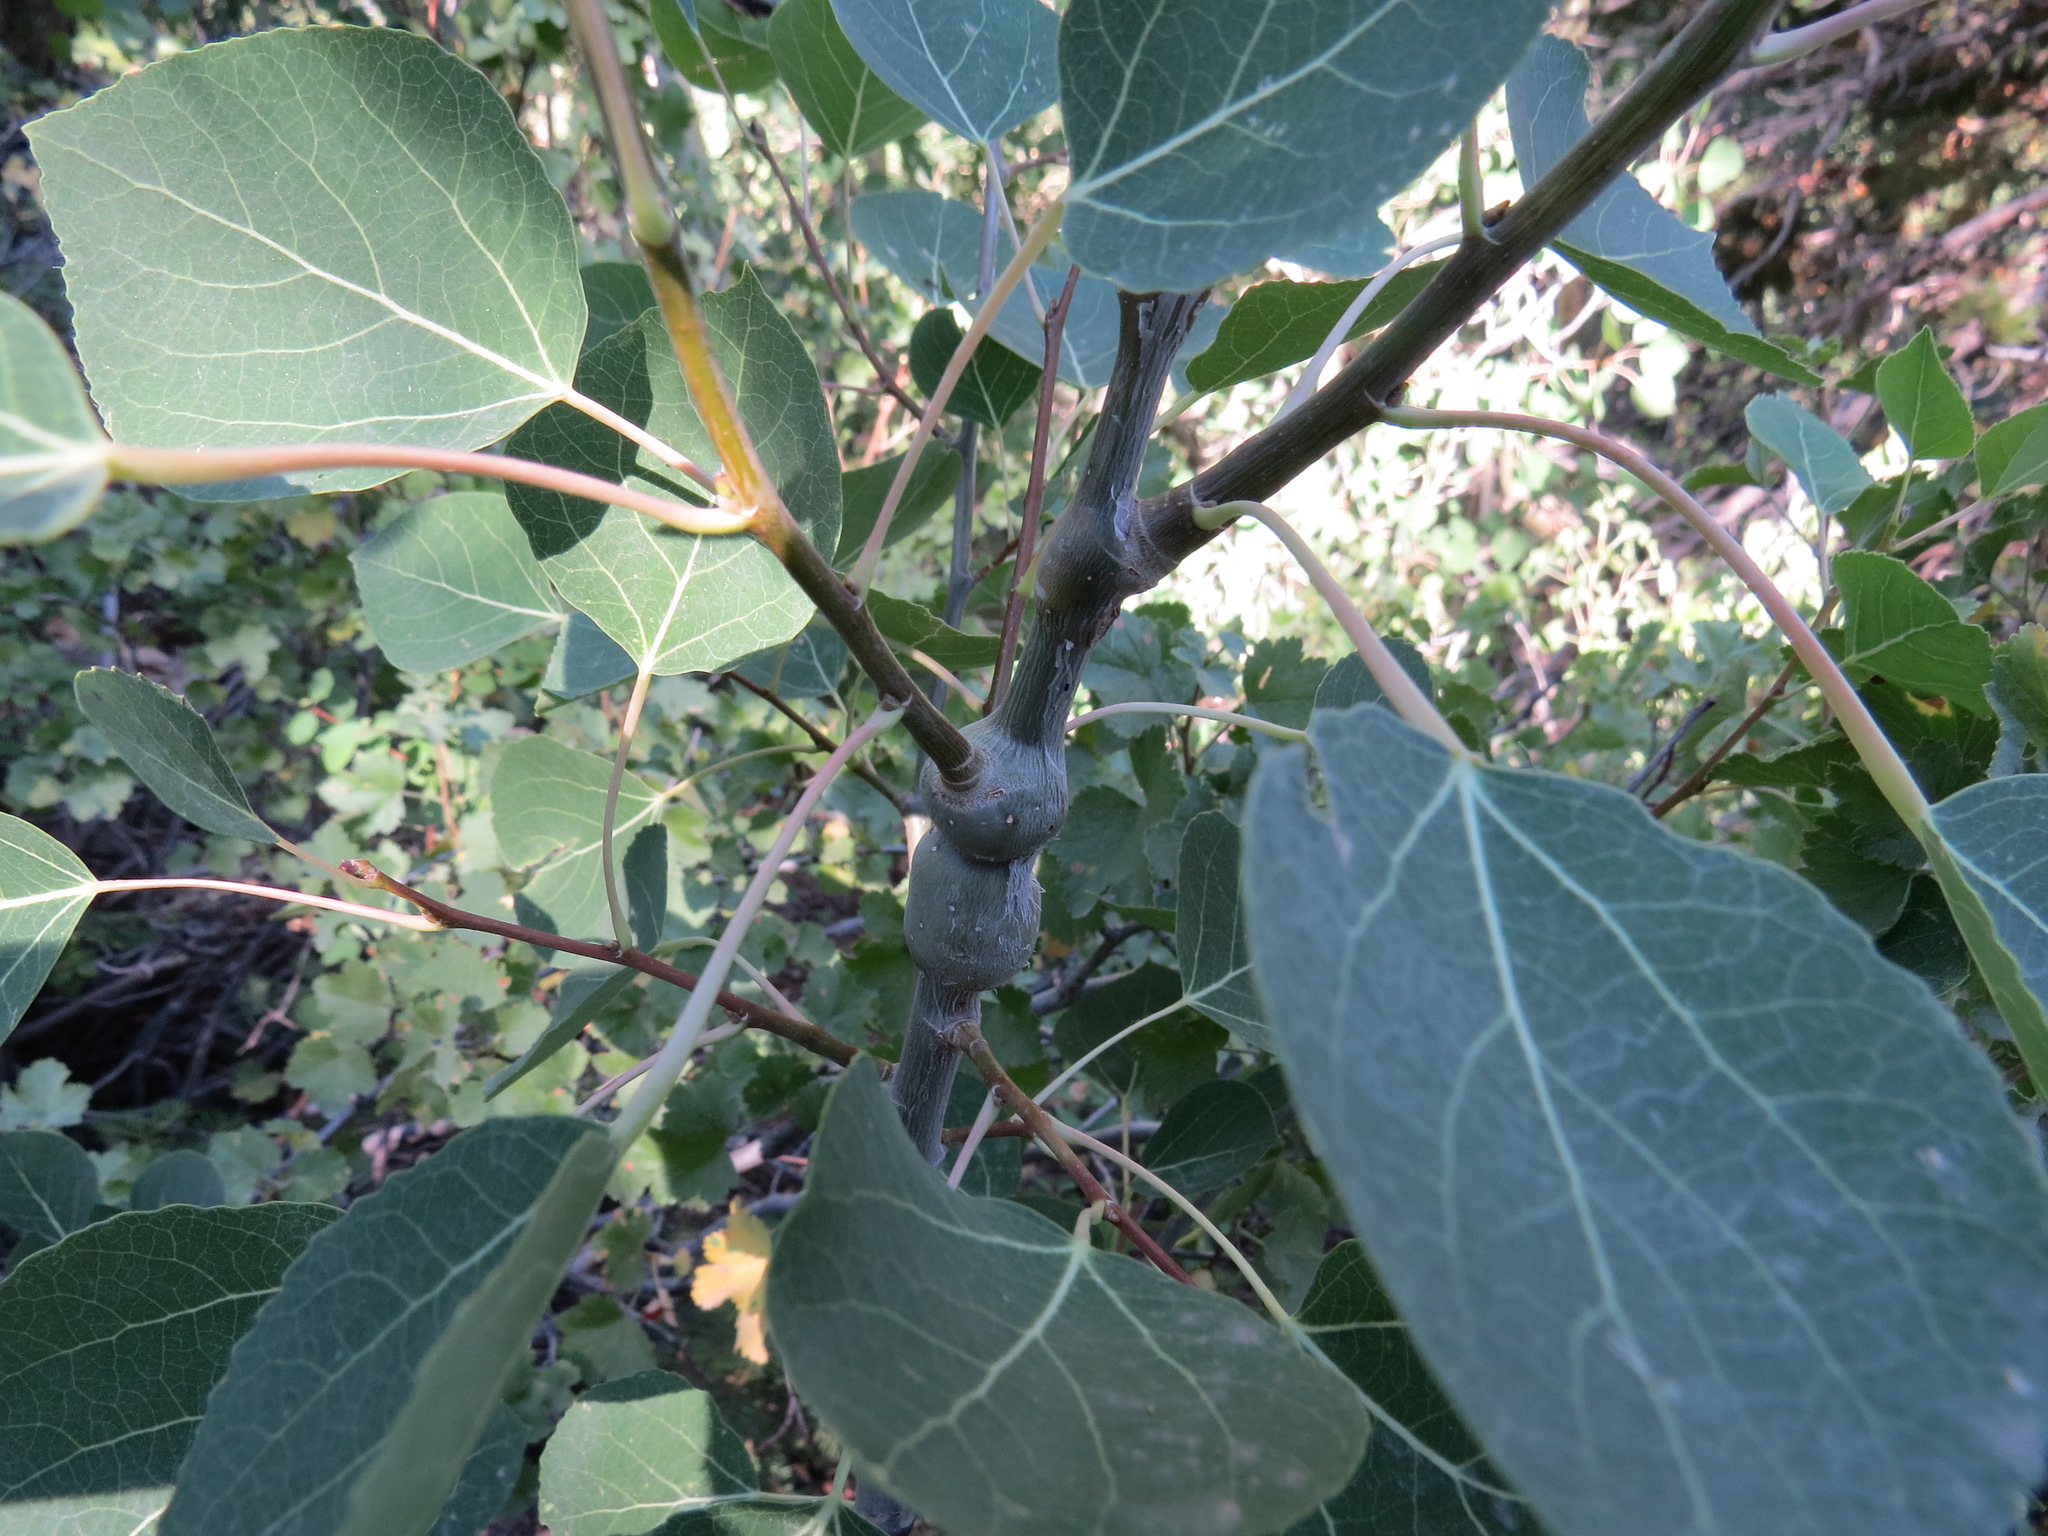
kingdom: Animalia
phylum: Arthropoda
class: Insecta
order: Diptera
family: Agromyzidae
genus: Euhexomyza
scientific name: Euhexomyza schineri
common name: Poplar twiggall fly
